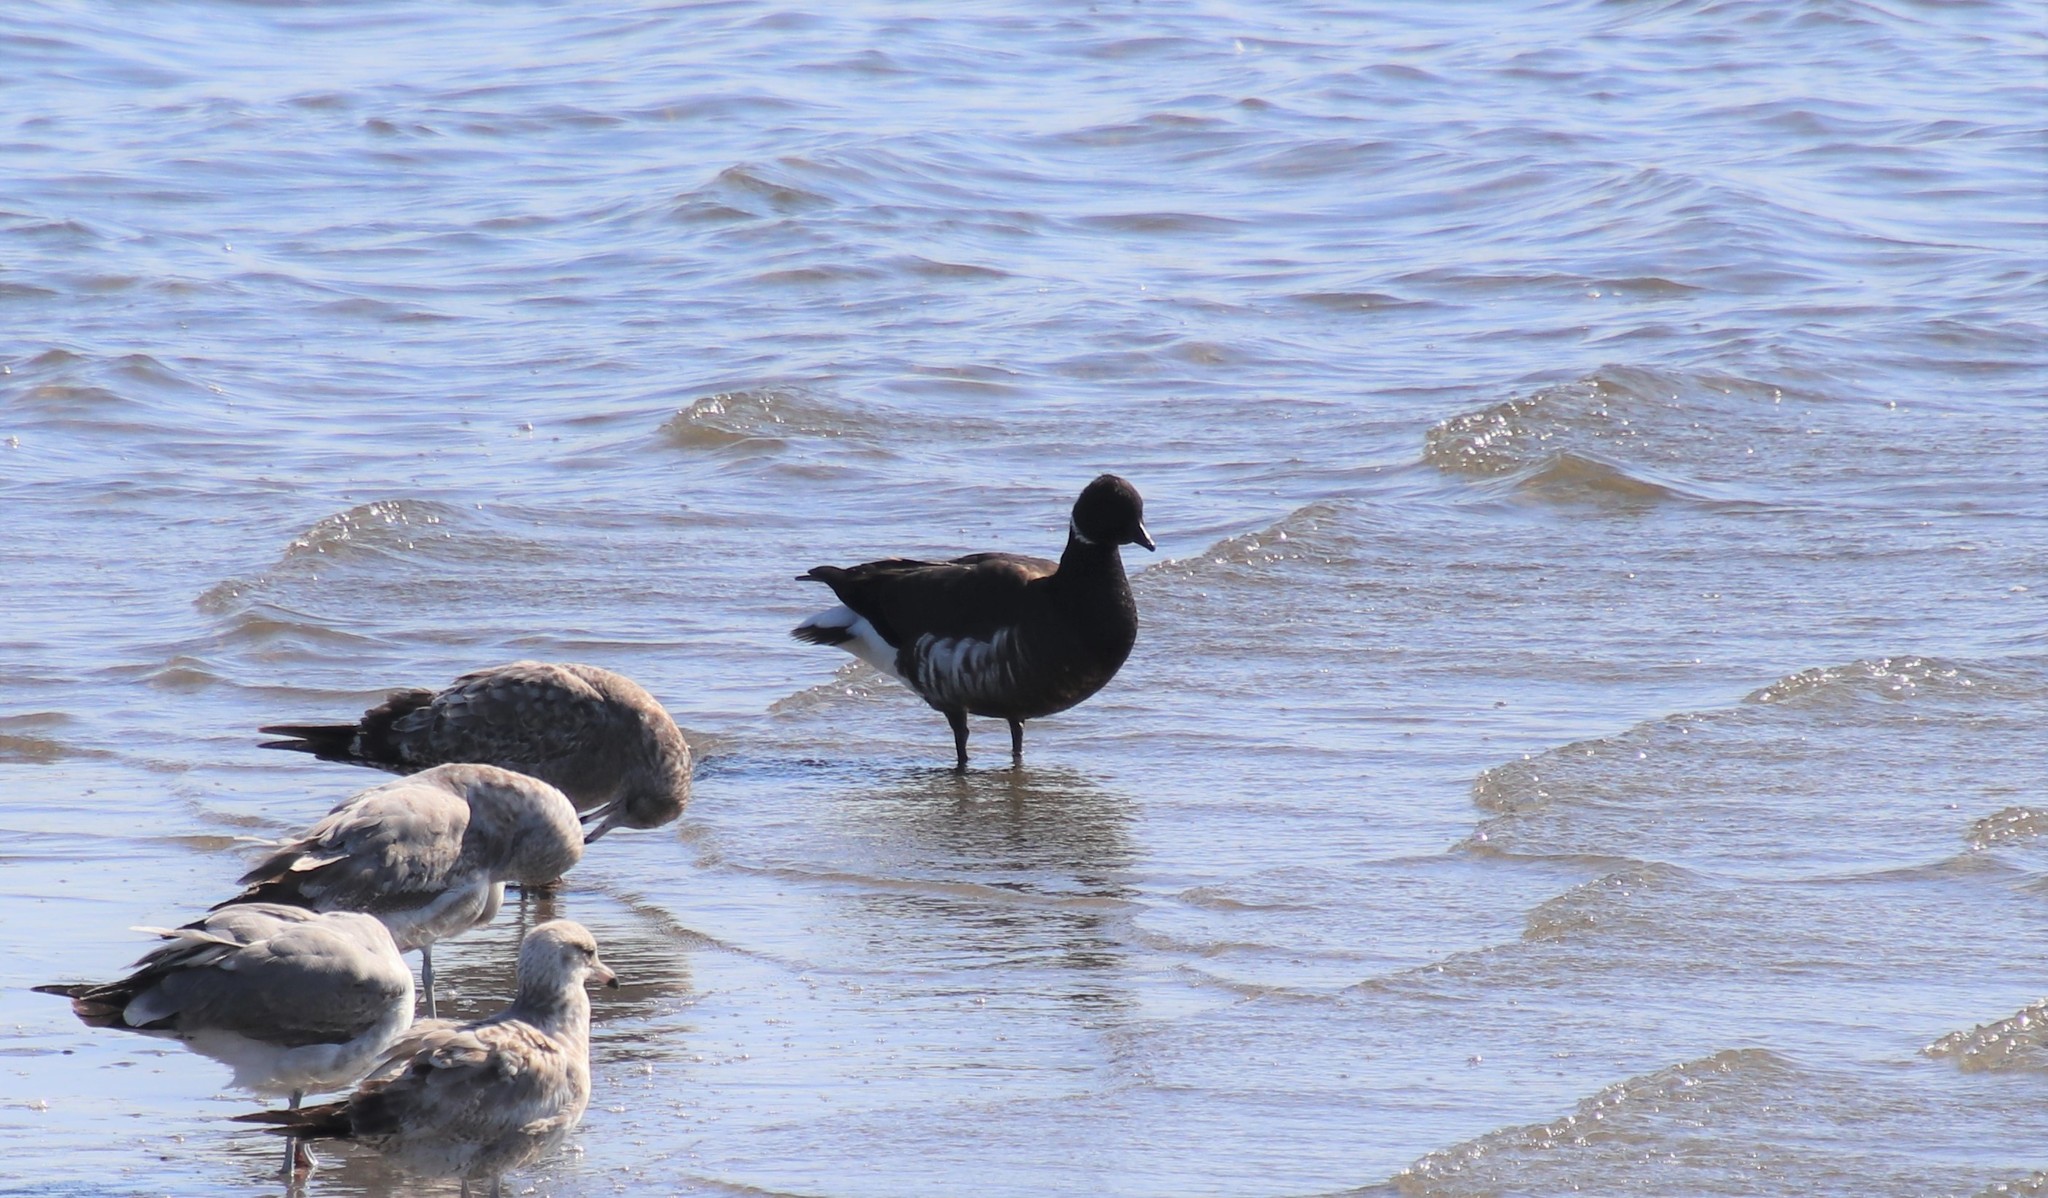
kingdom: Animalia
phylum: Chordata
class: Aves
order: Anseriformes
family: Anatidae
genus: Branta
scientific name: Branta bernicla
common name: Brant goose
